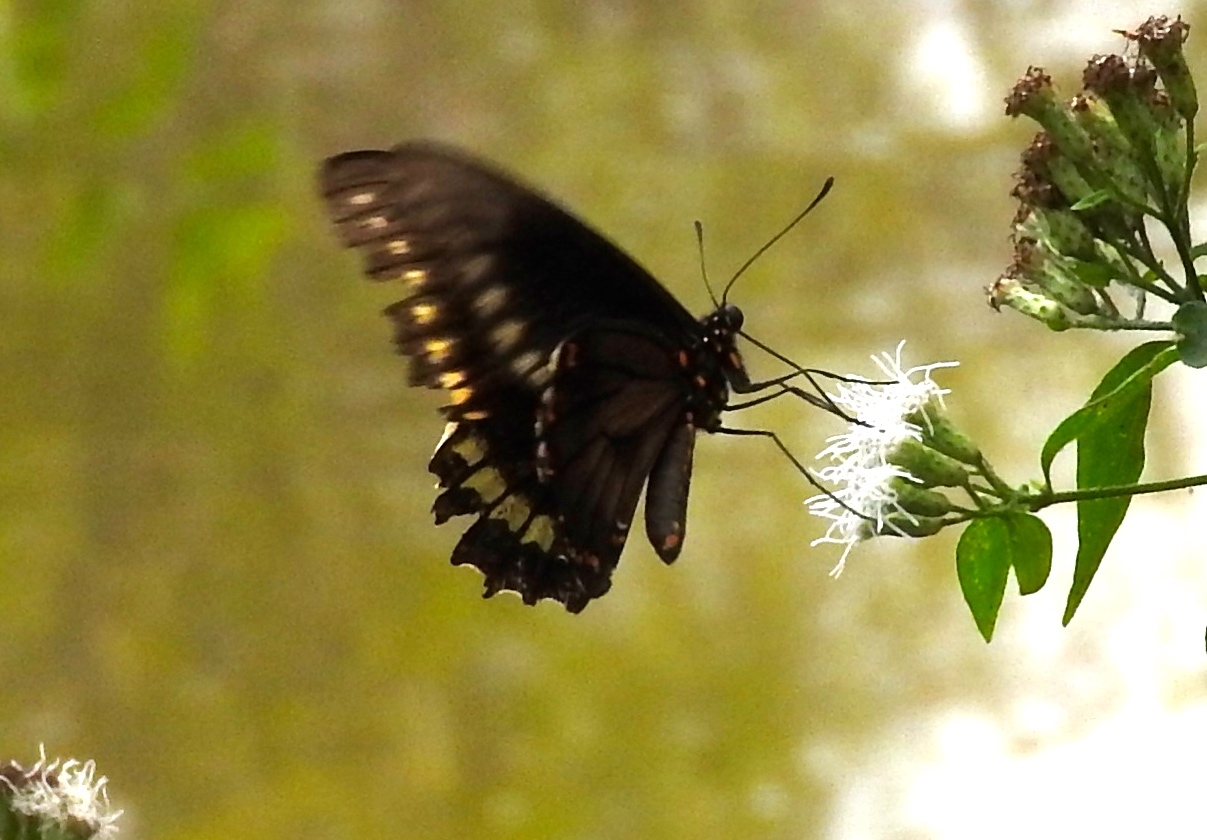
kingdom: Animalia
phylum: Arthropoda
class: Insecta
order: Lepidoptera
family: Papilionidae
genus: Battus
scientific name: Battus polydamas
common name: Polydamas swallowtail
